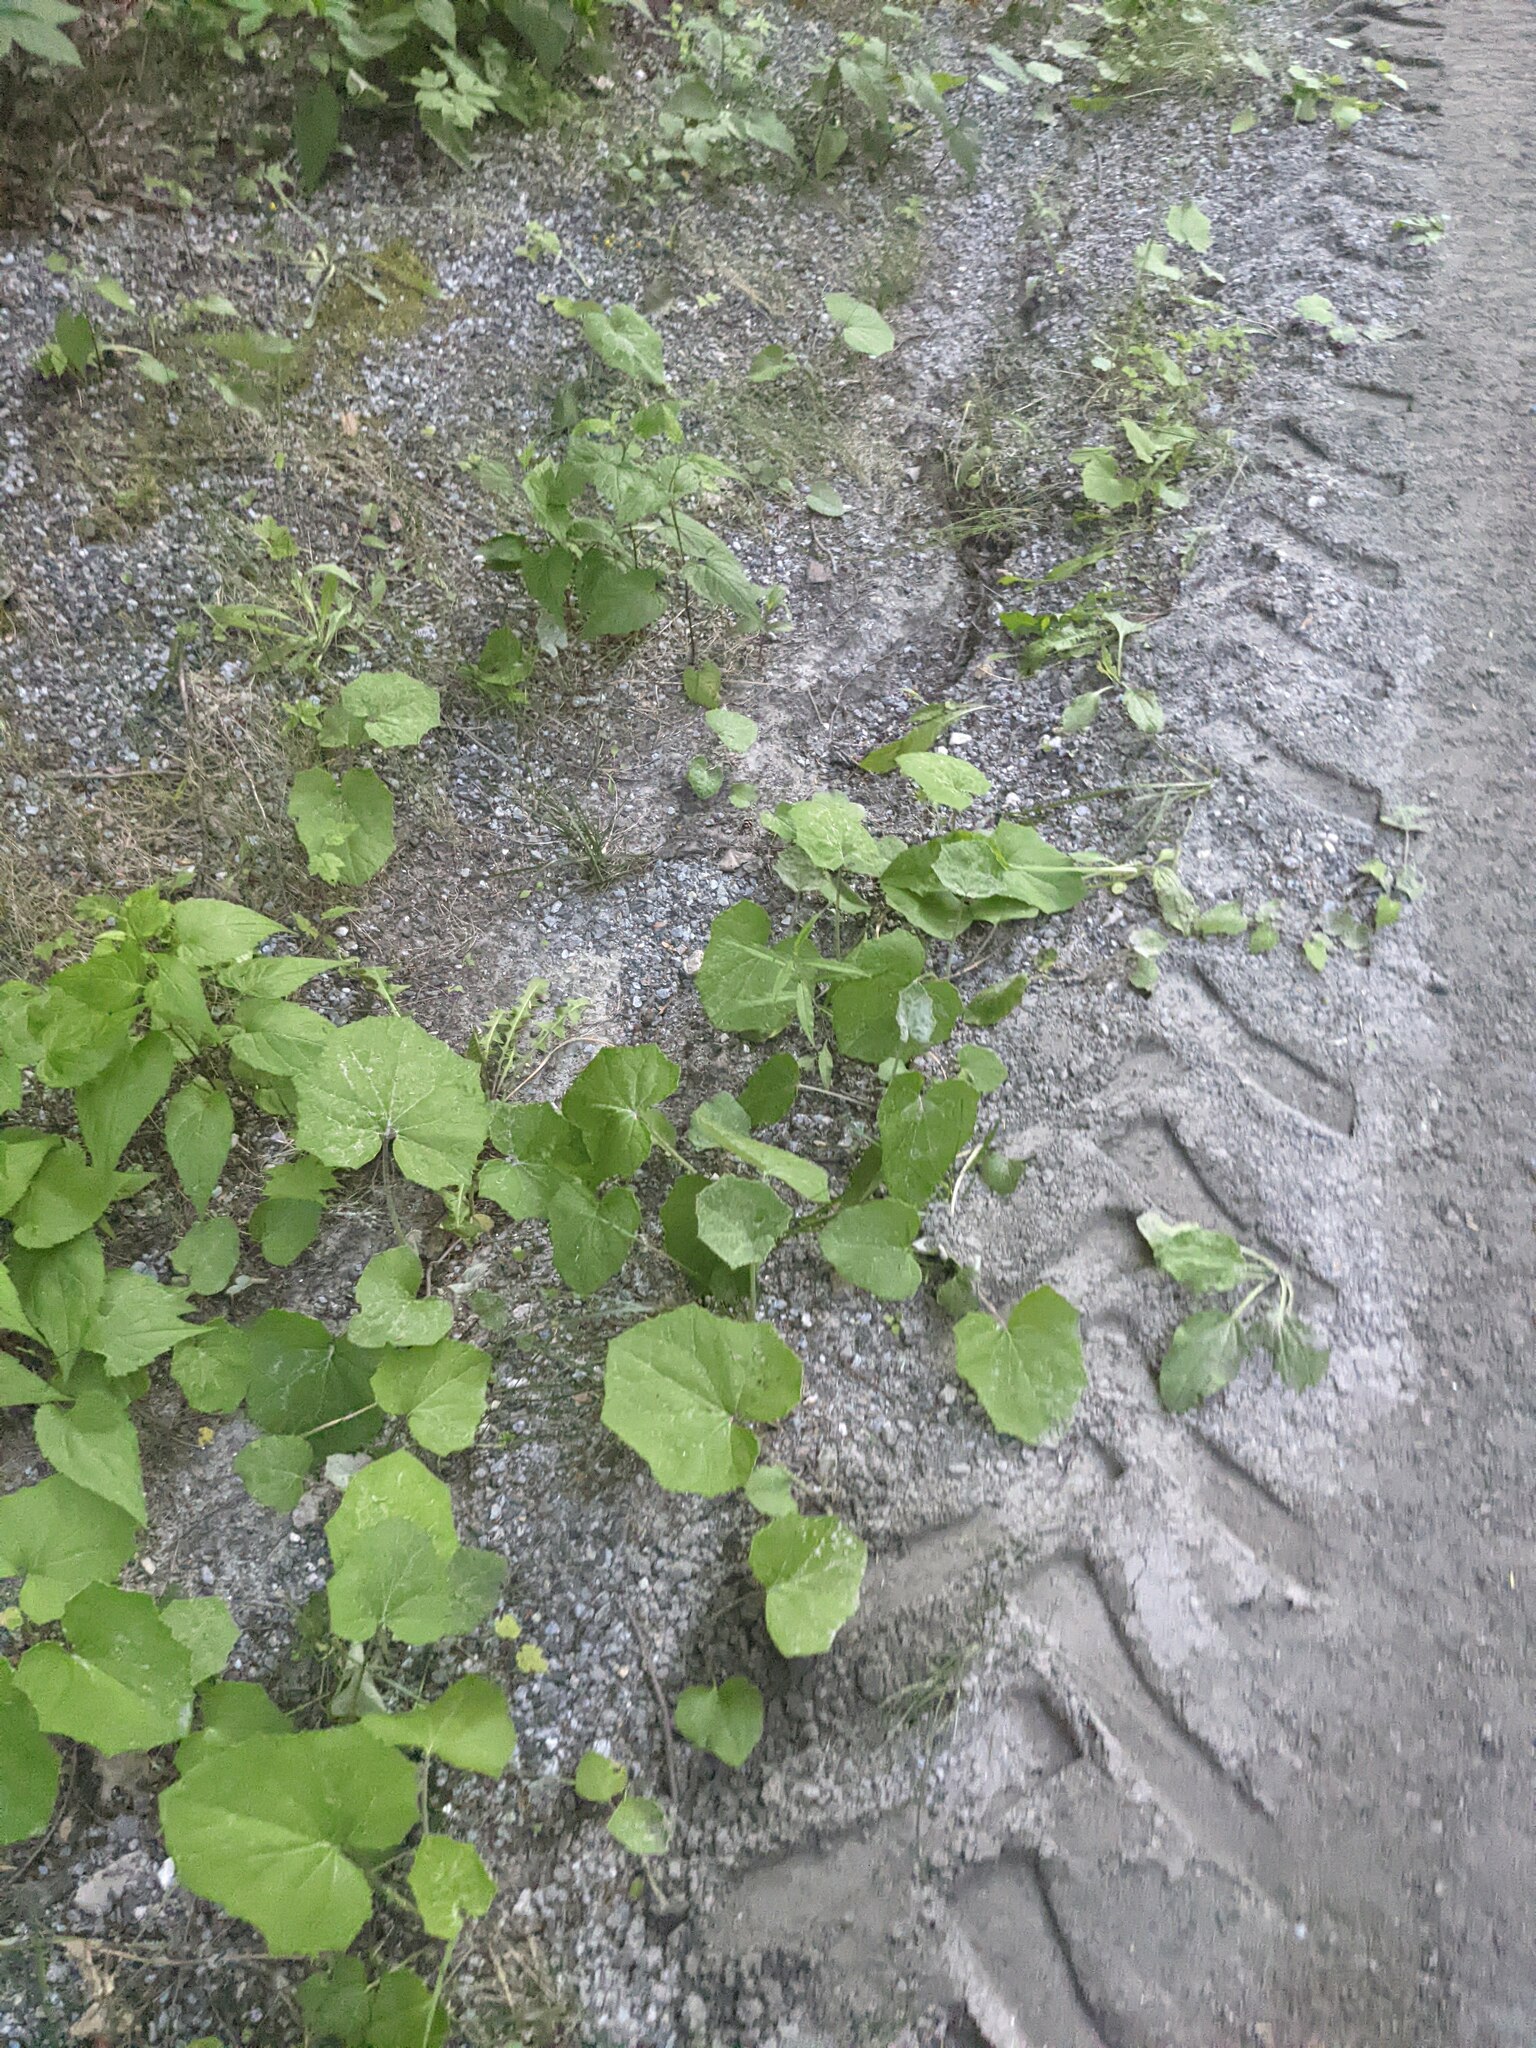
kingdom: Plantae
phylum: Tracheophyta
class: Magnoliopsida
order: Asterales
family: Asteraceae
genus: Tussilago
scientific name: Tussilago farfara
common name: Coltsfoot
